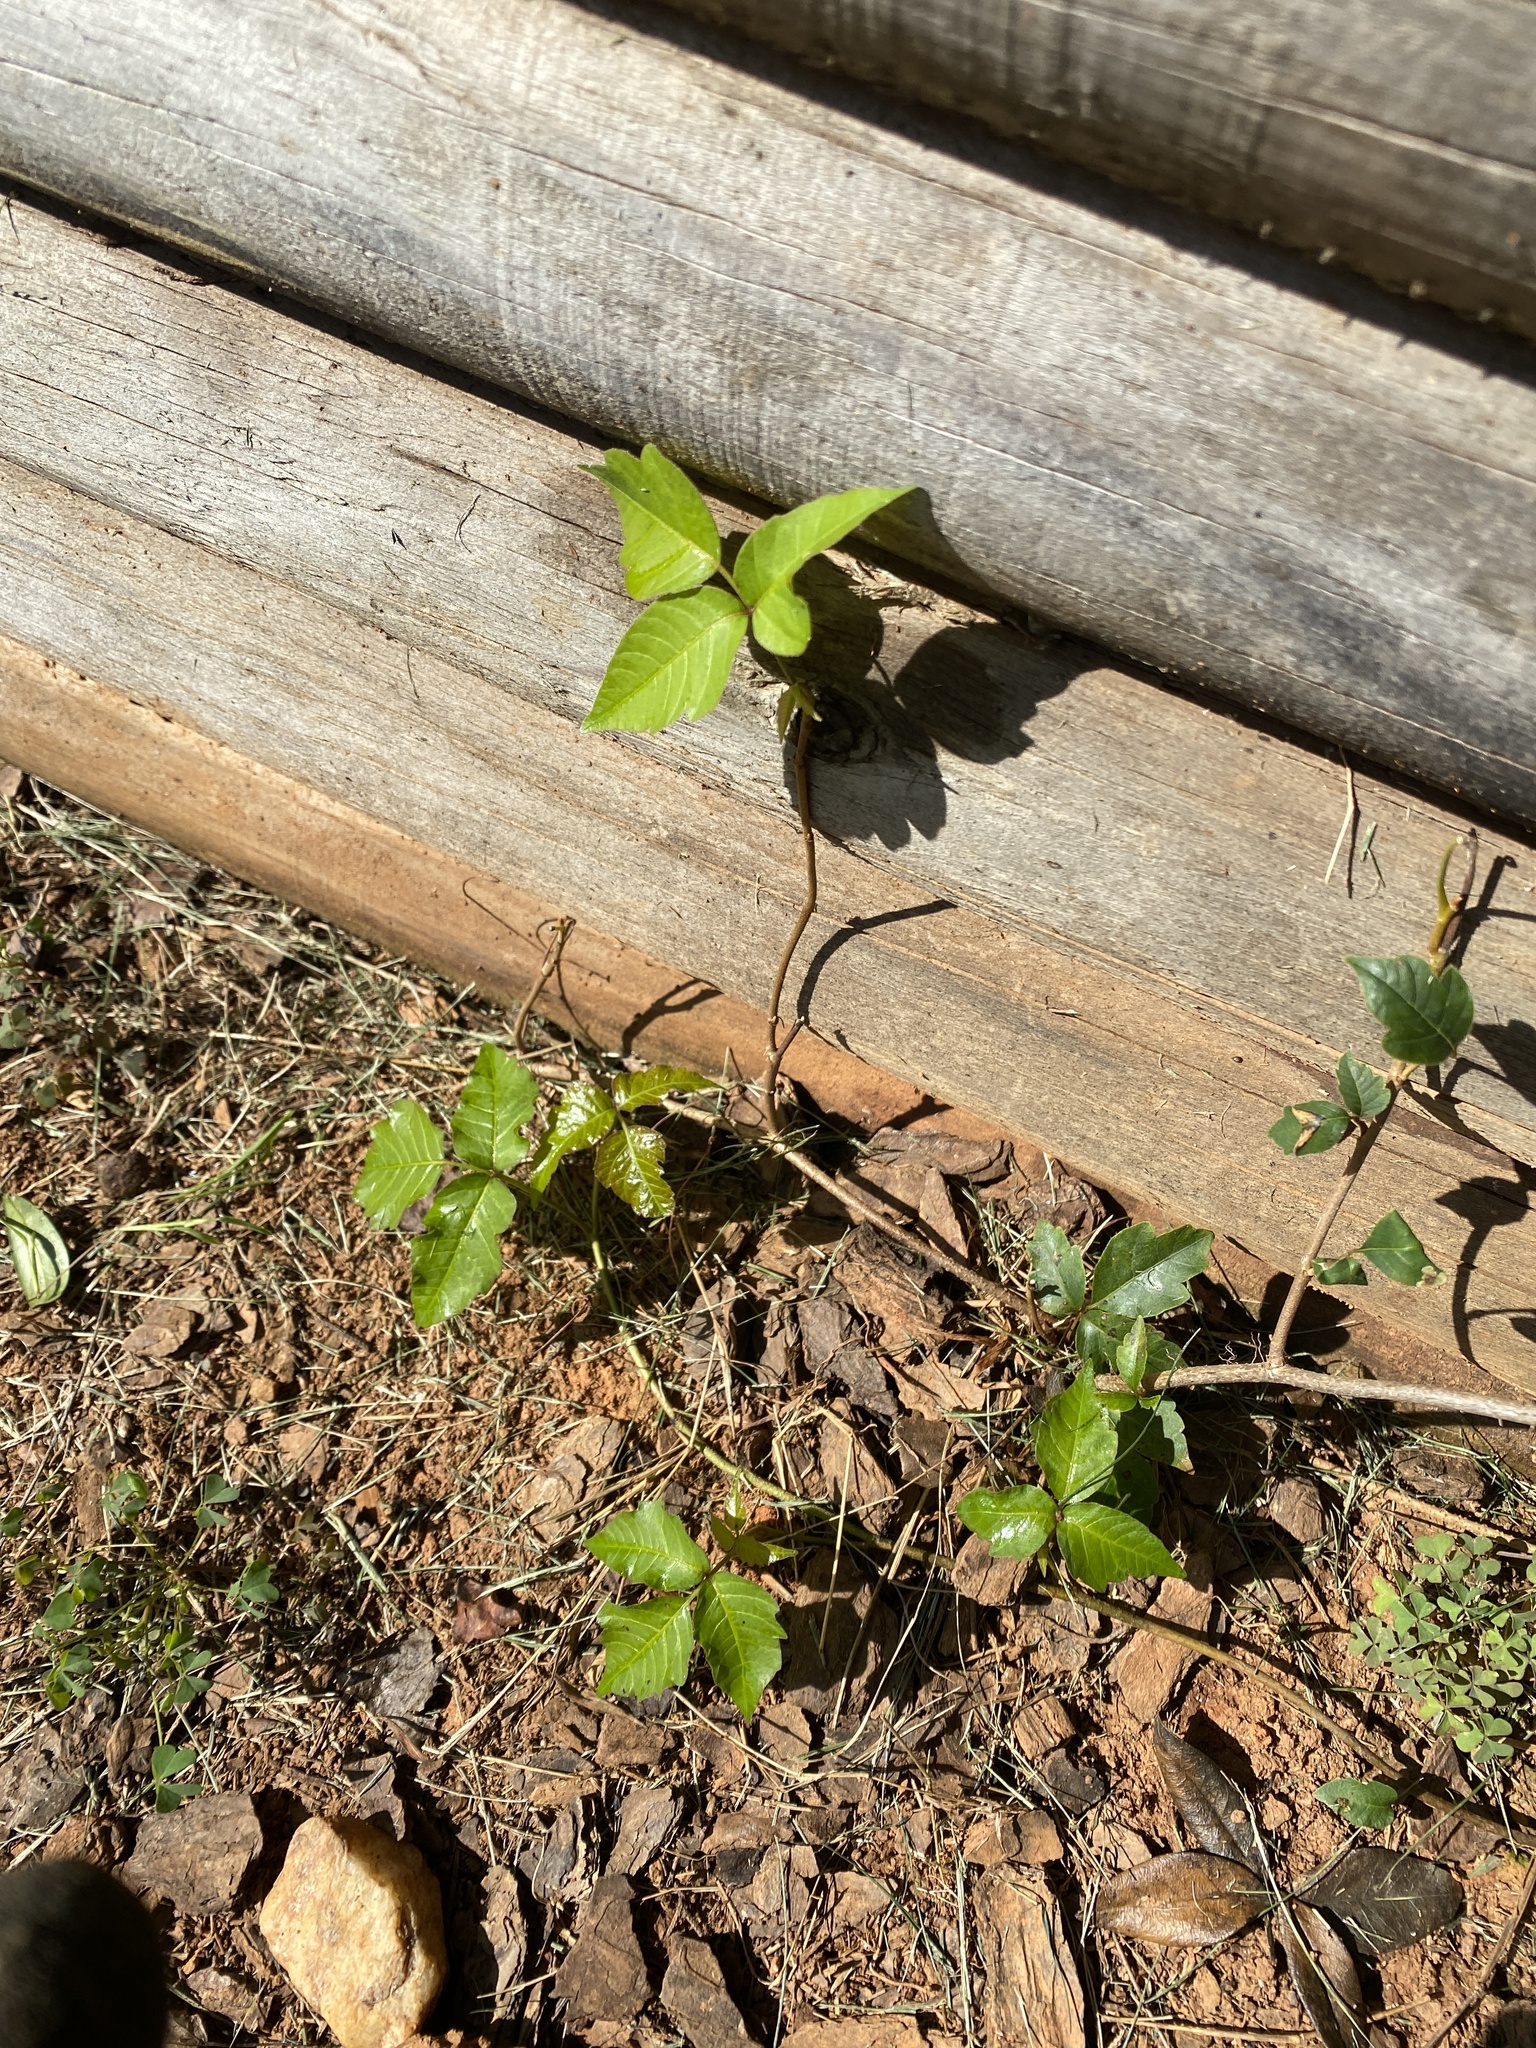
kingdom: Plantae
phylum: Tracheophyta
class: Magnoliopsida
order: Sapindales
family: Anacardiaceae
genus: Toxicodendron
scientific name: Toxicodendron radicans
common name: Poison ivy
